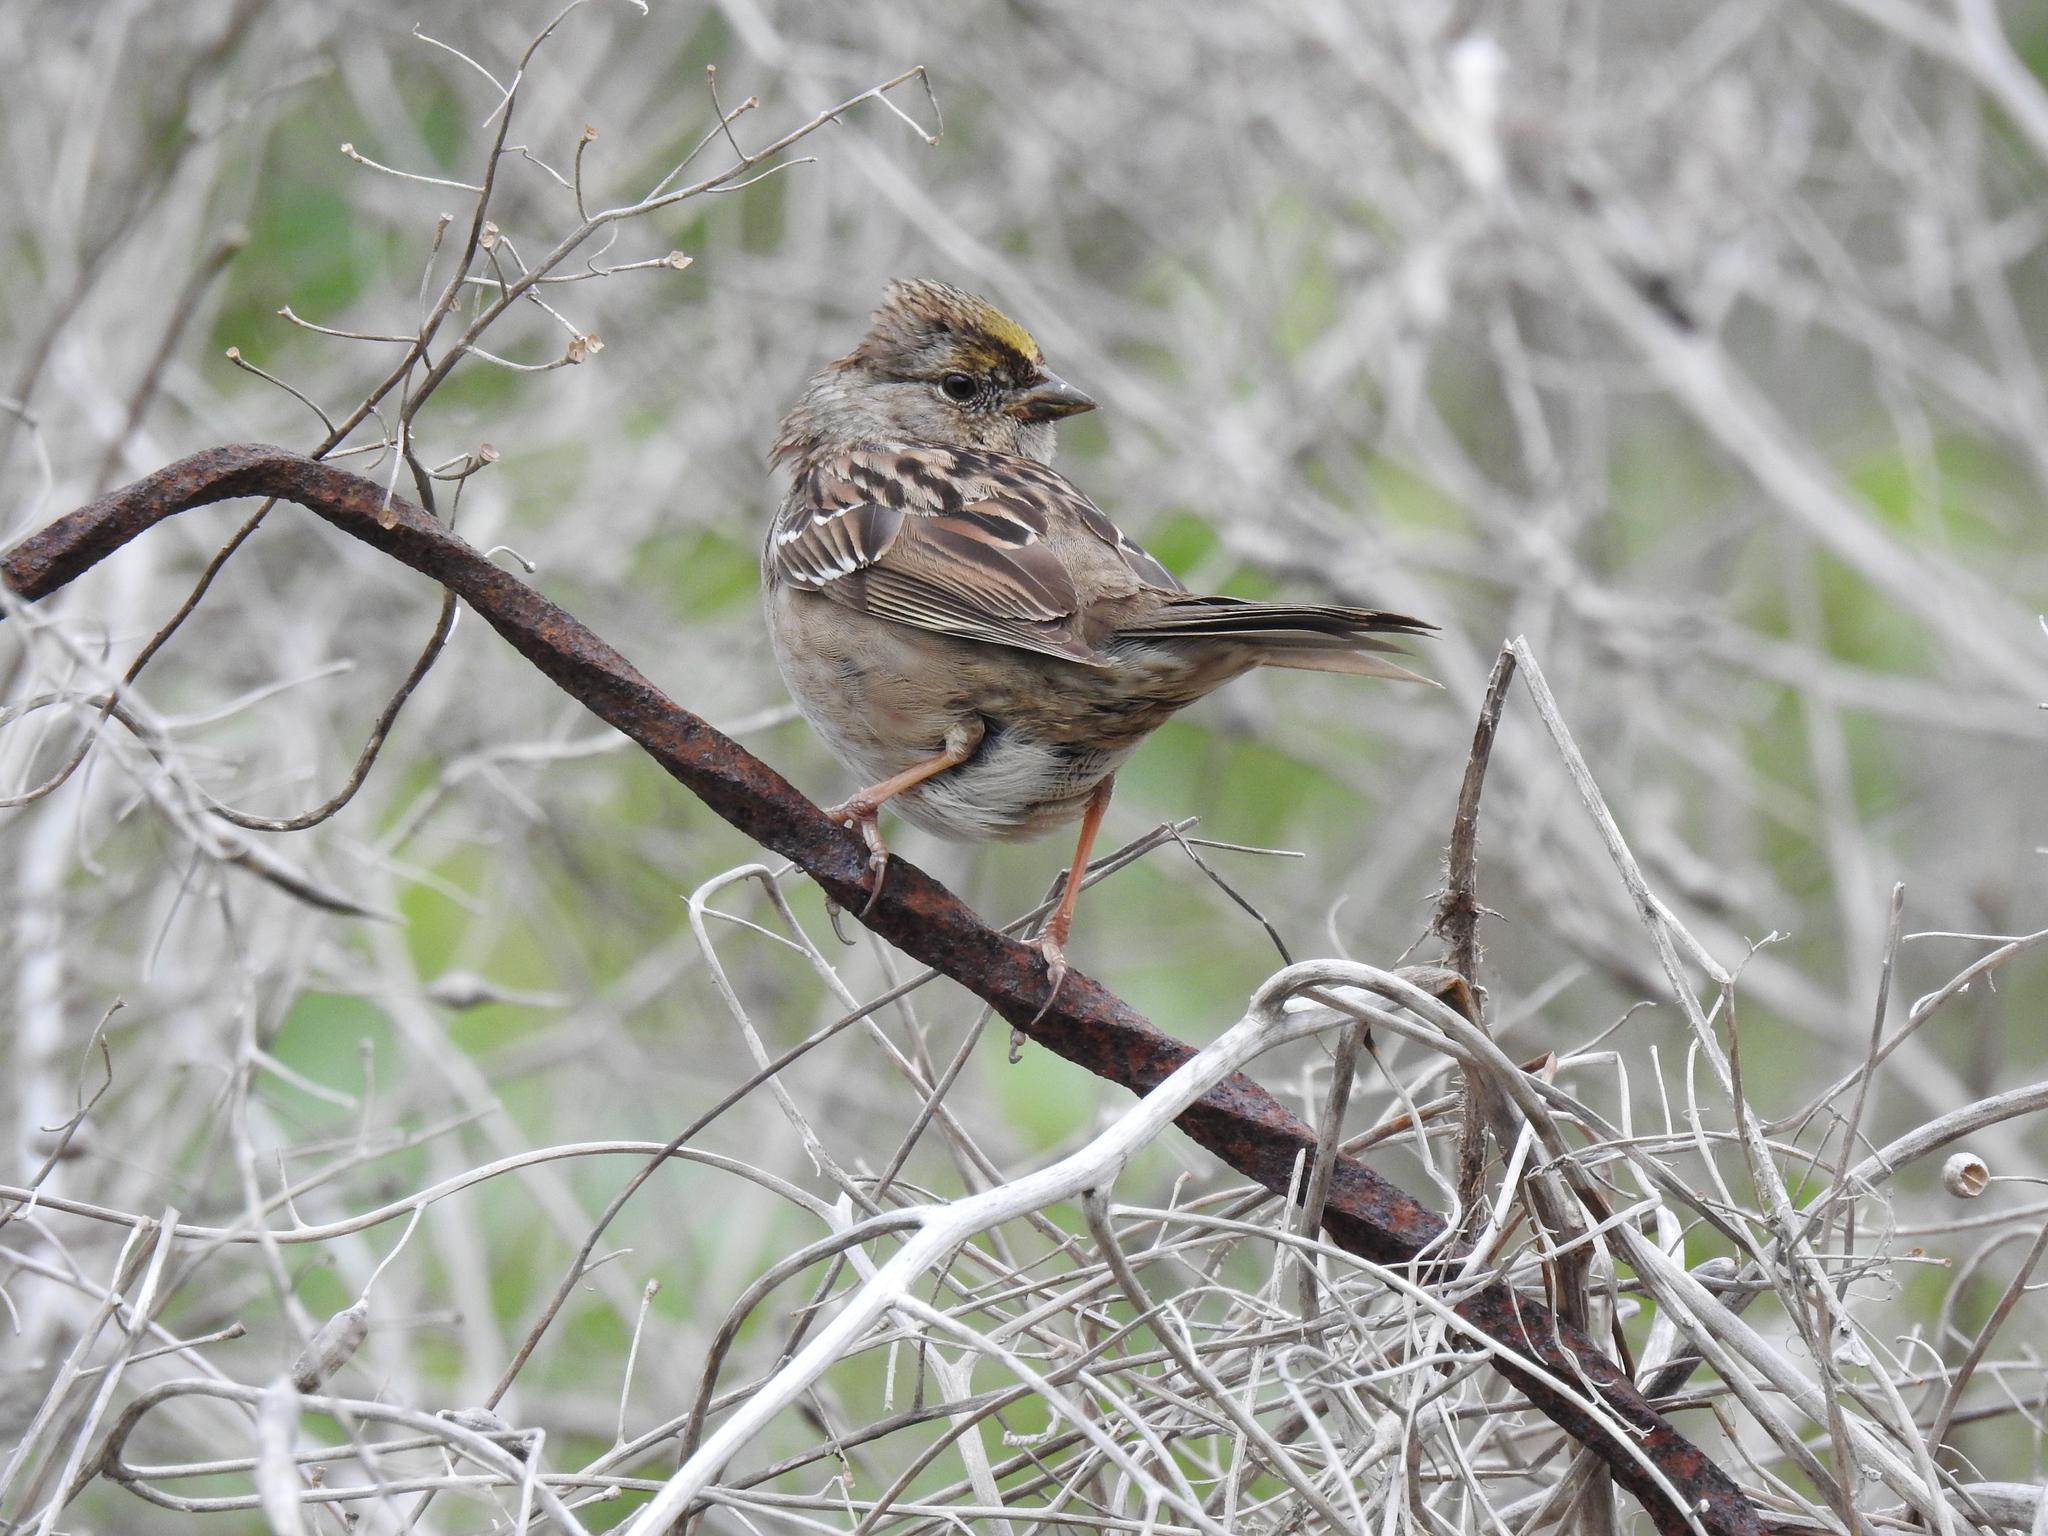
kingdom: Animalia
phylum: Chordata
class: Aves
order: Passeriformes
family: Passerellidae
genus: Zonotrichia
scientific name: Zonotrichia atricapilla
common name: Golden-crowned sparrow
